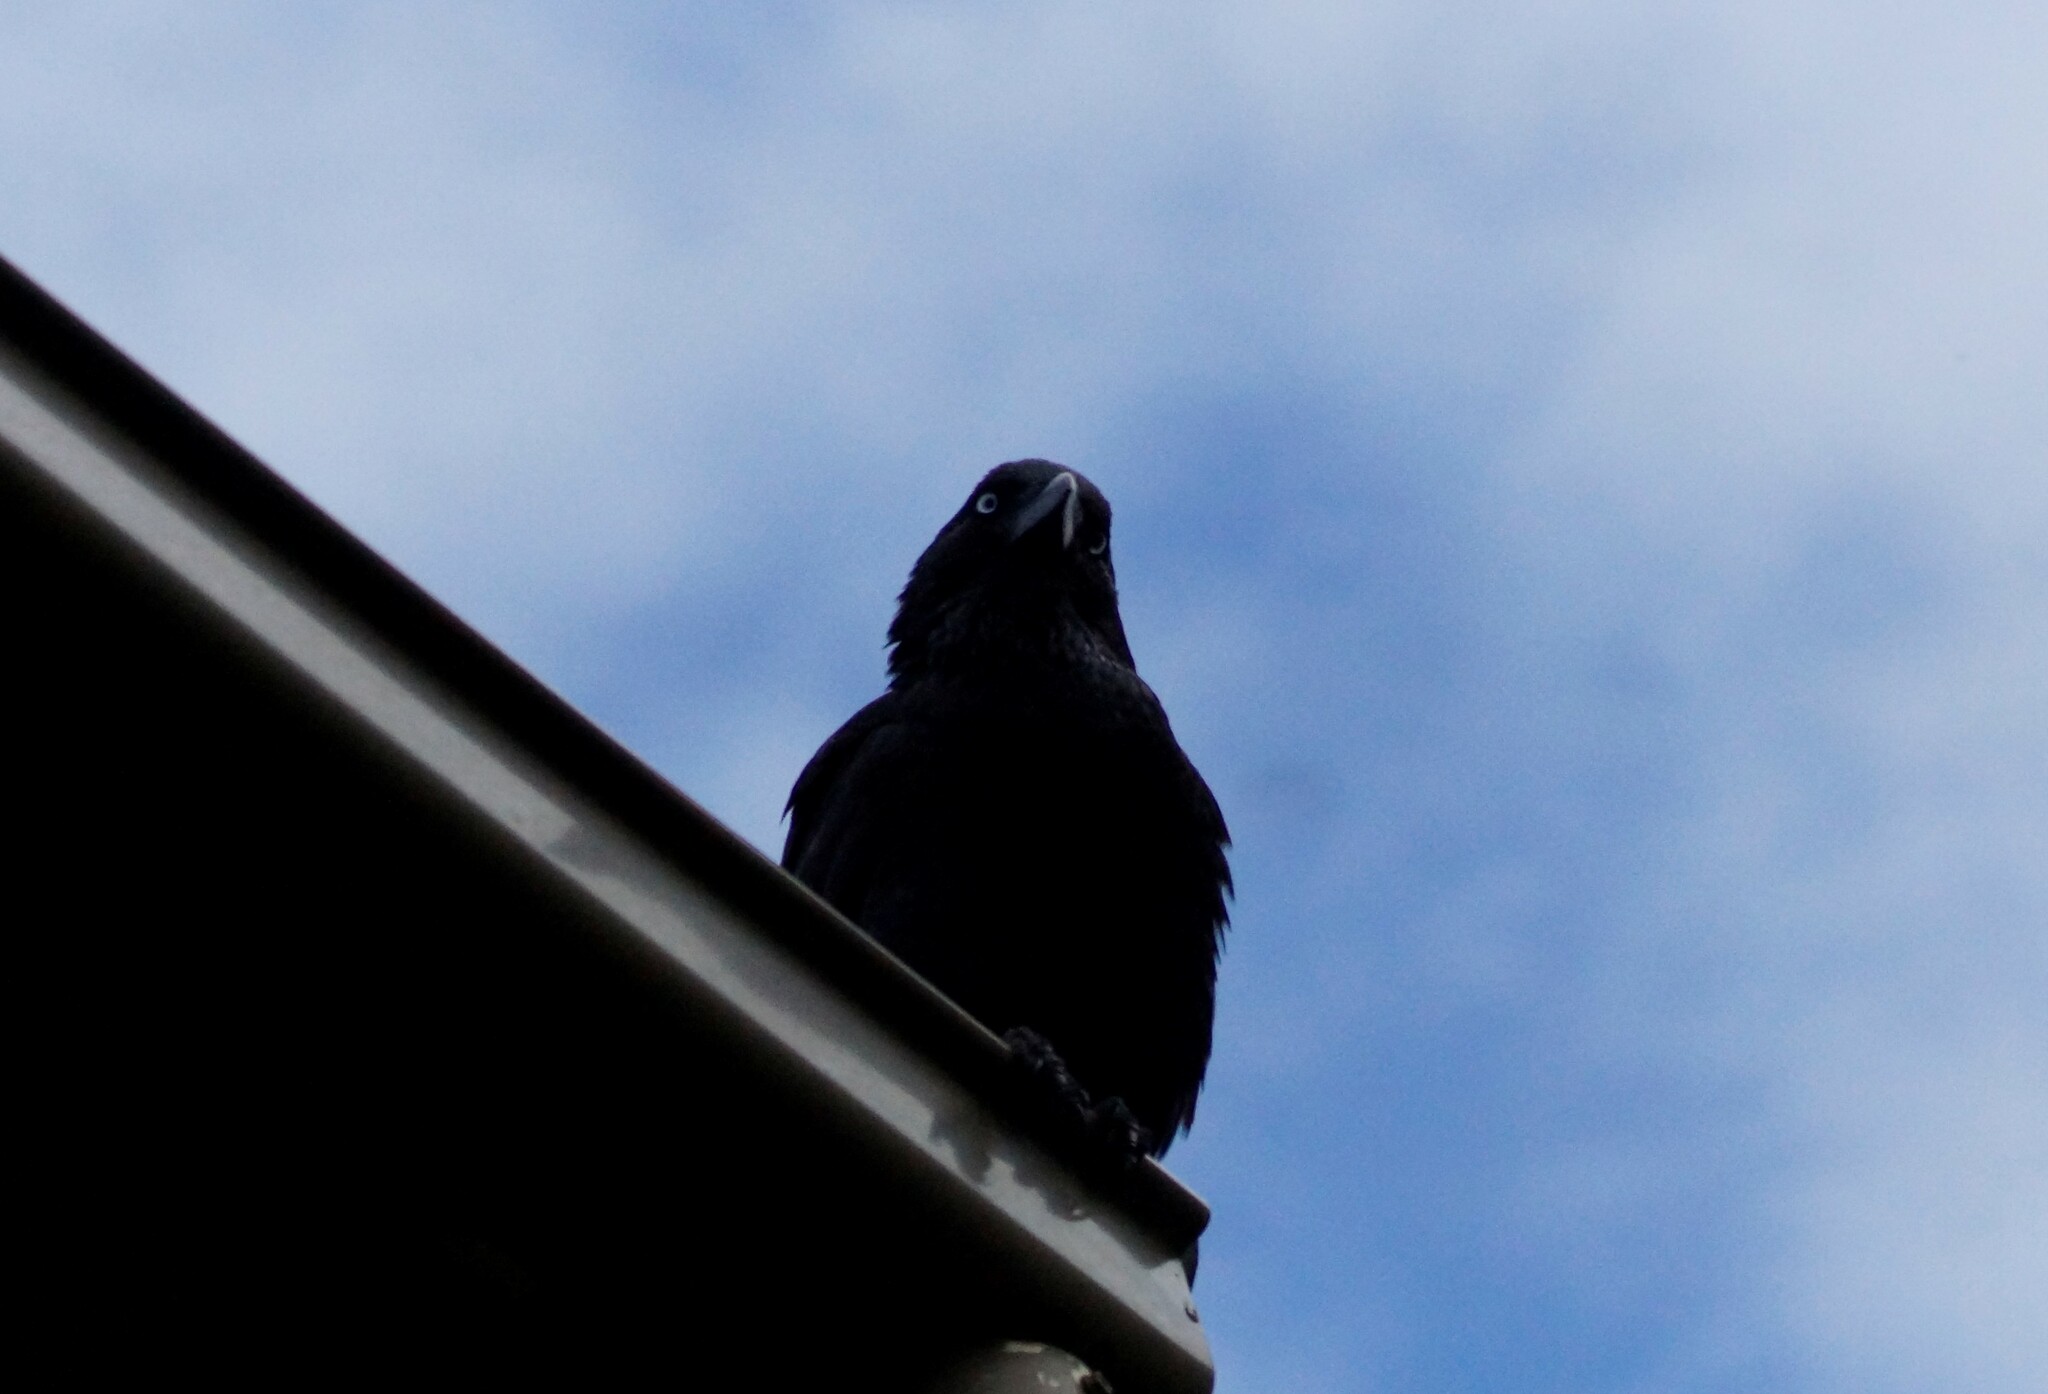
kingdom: Animalia
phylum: Chordata
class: Aves
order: Passeriformes
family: Corvidae
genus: Corvus
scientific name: Corvus mellori
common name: Little raven
